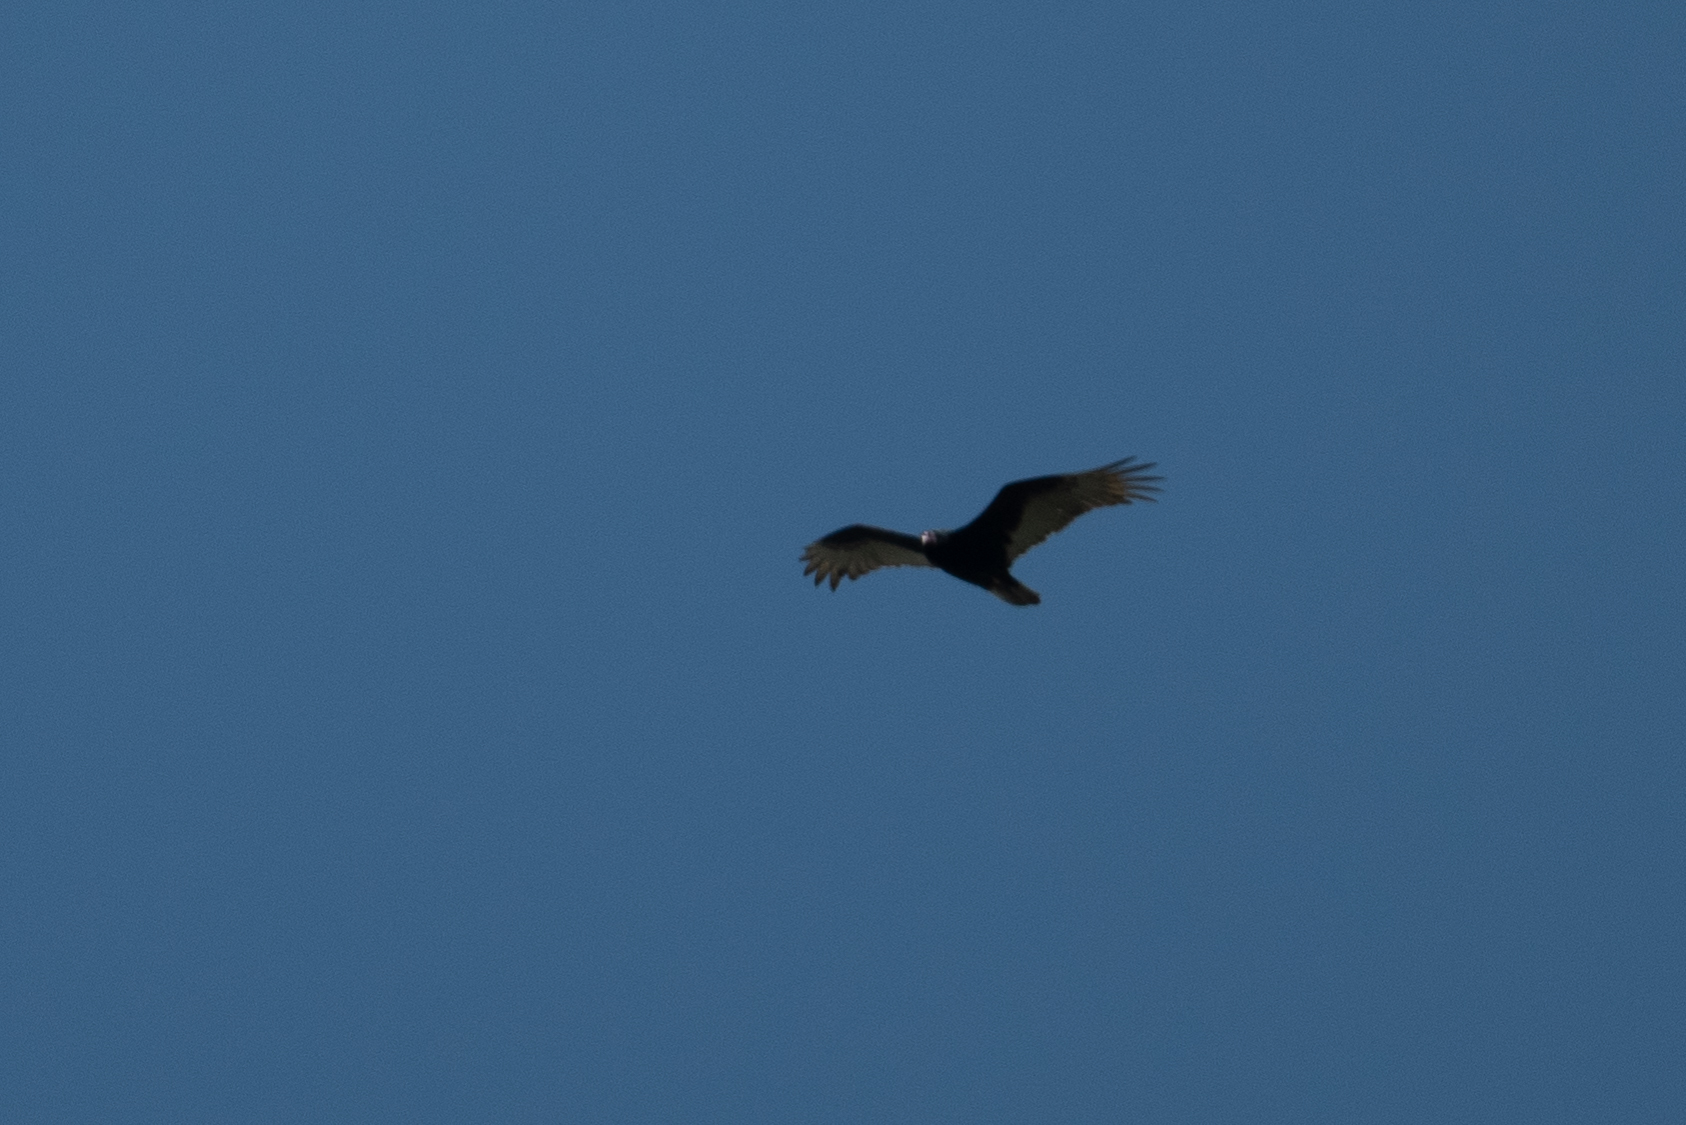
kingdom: Animalia
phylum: Chordata
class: Aves
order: Accipitriformes
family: Cathartidae
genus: Cathartes
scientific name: Cathartes aura
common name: Turkey vulture
